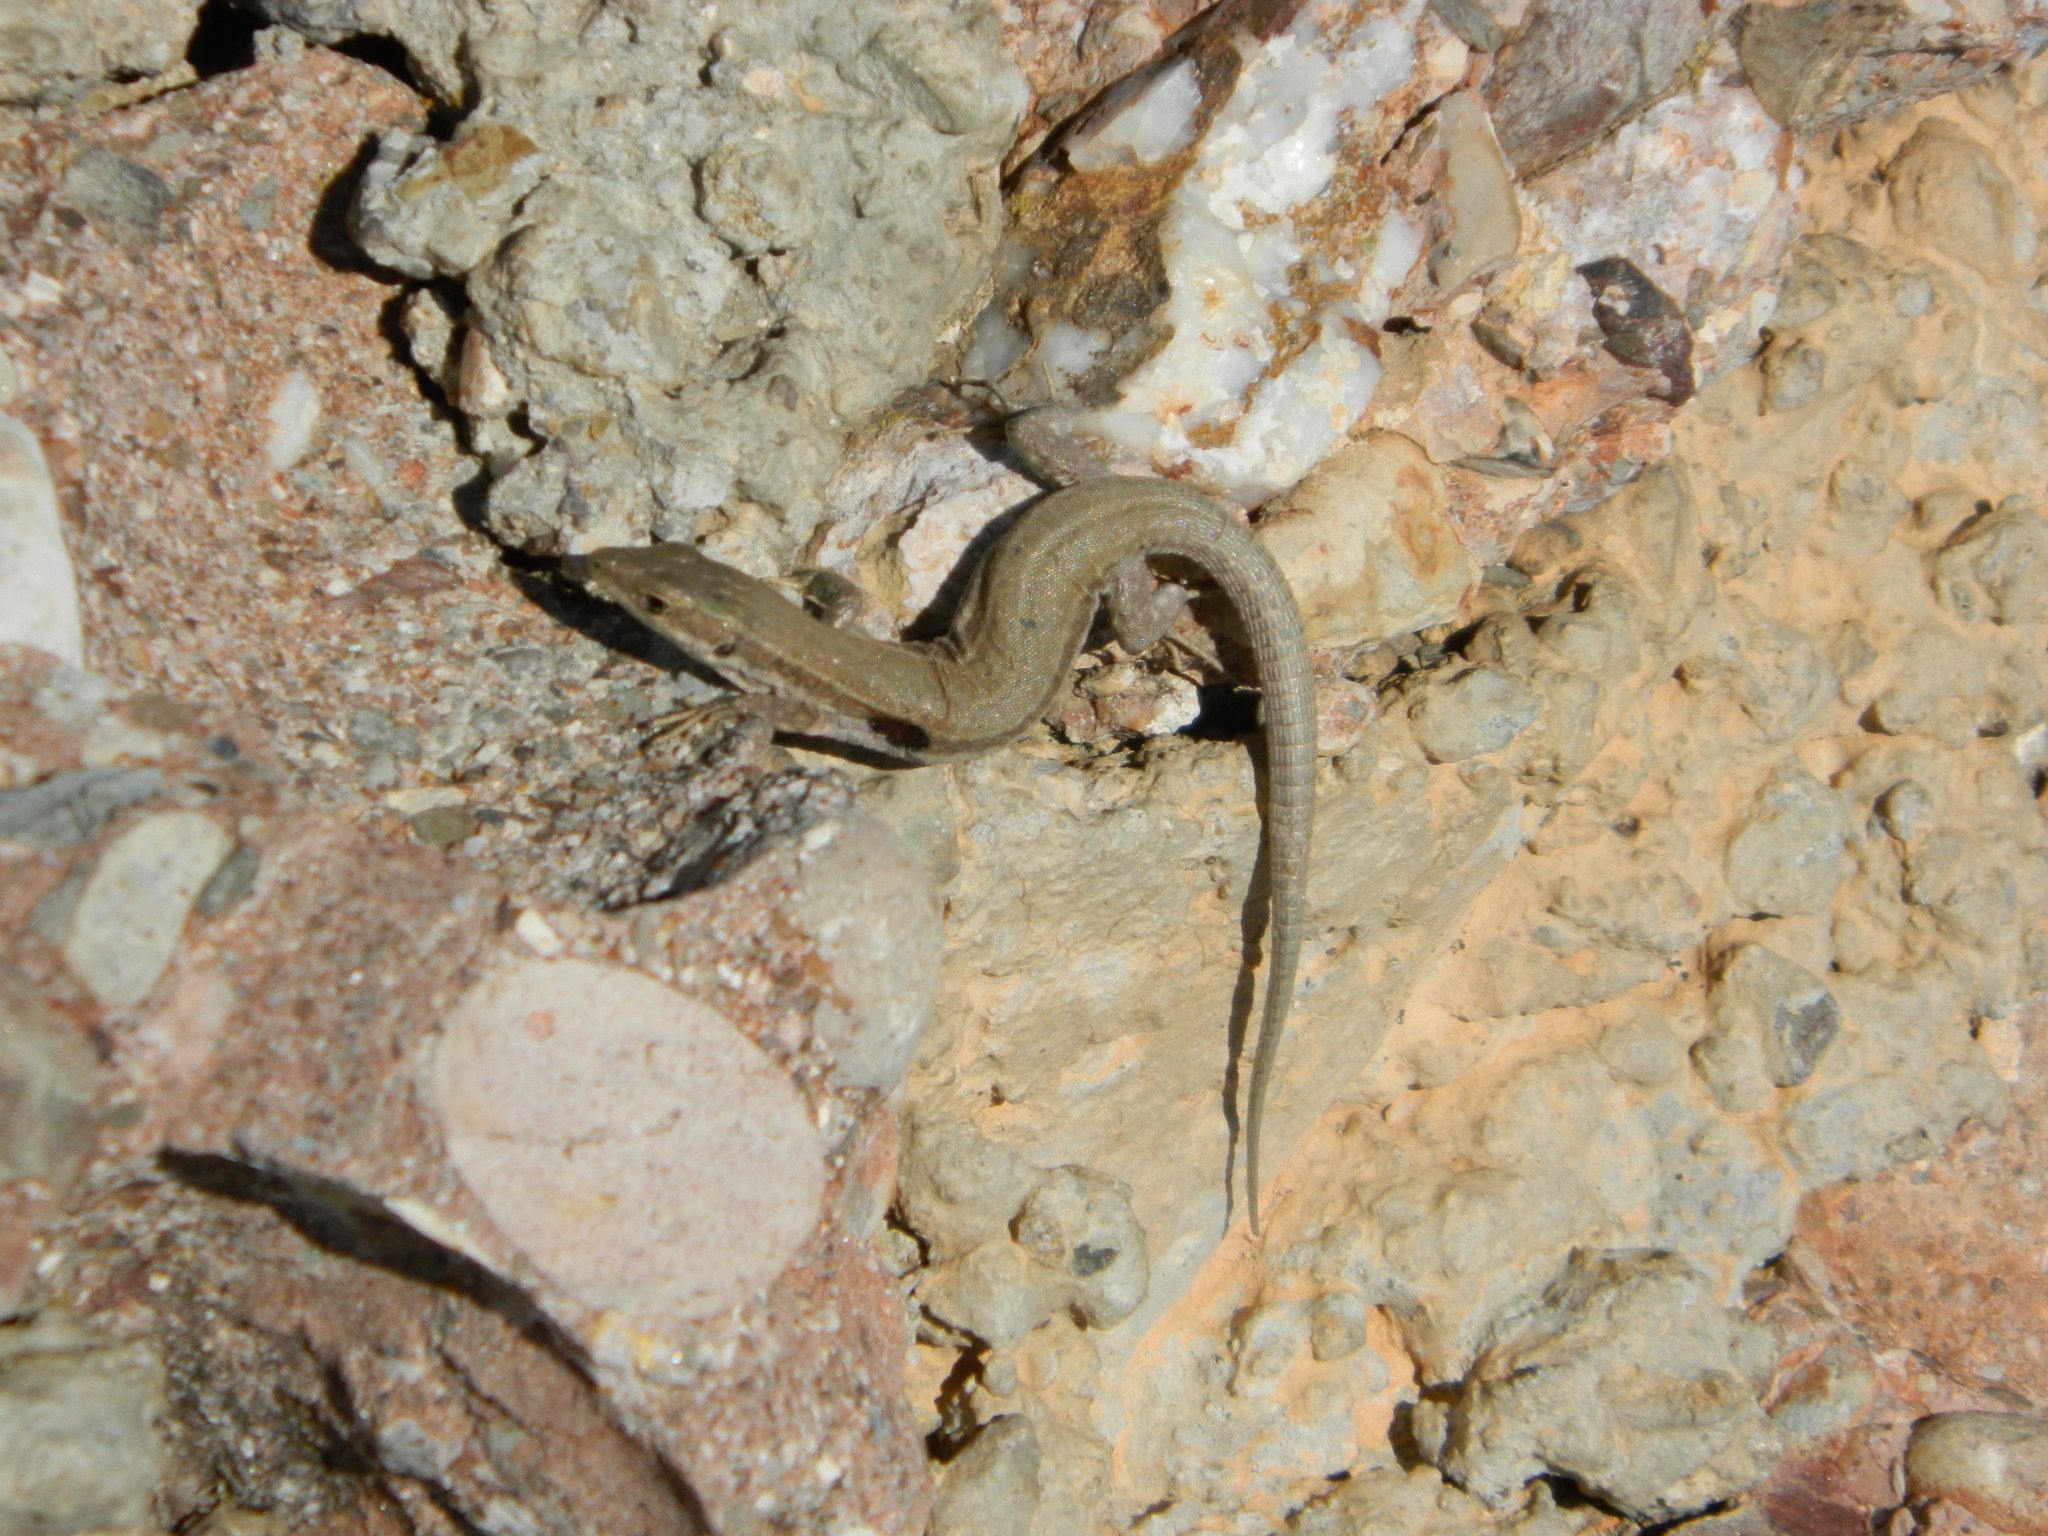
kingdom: Animalia
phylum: Chordata
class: Squamata
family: Lacertidae
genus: Podarcis
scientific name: Podarcis liolepis
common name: Catalonian wall lizard
